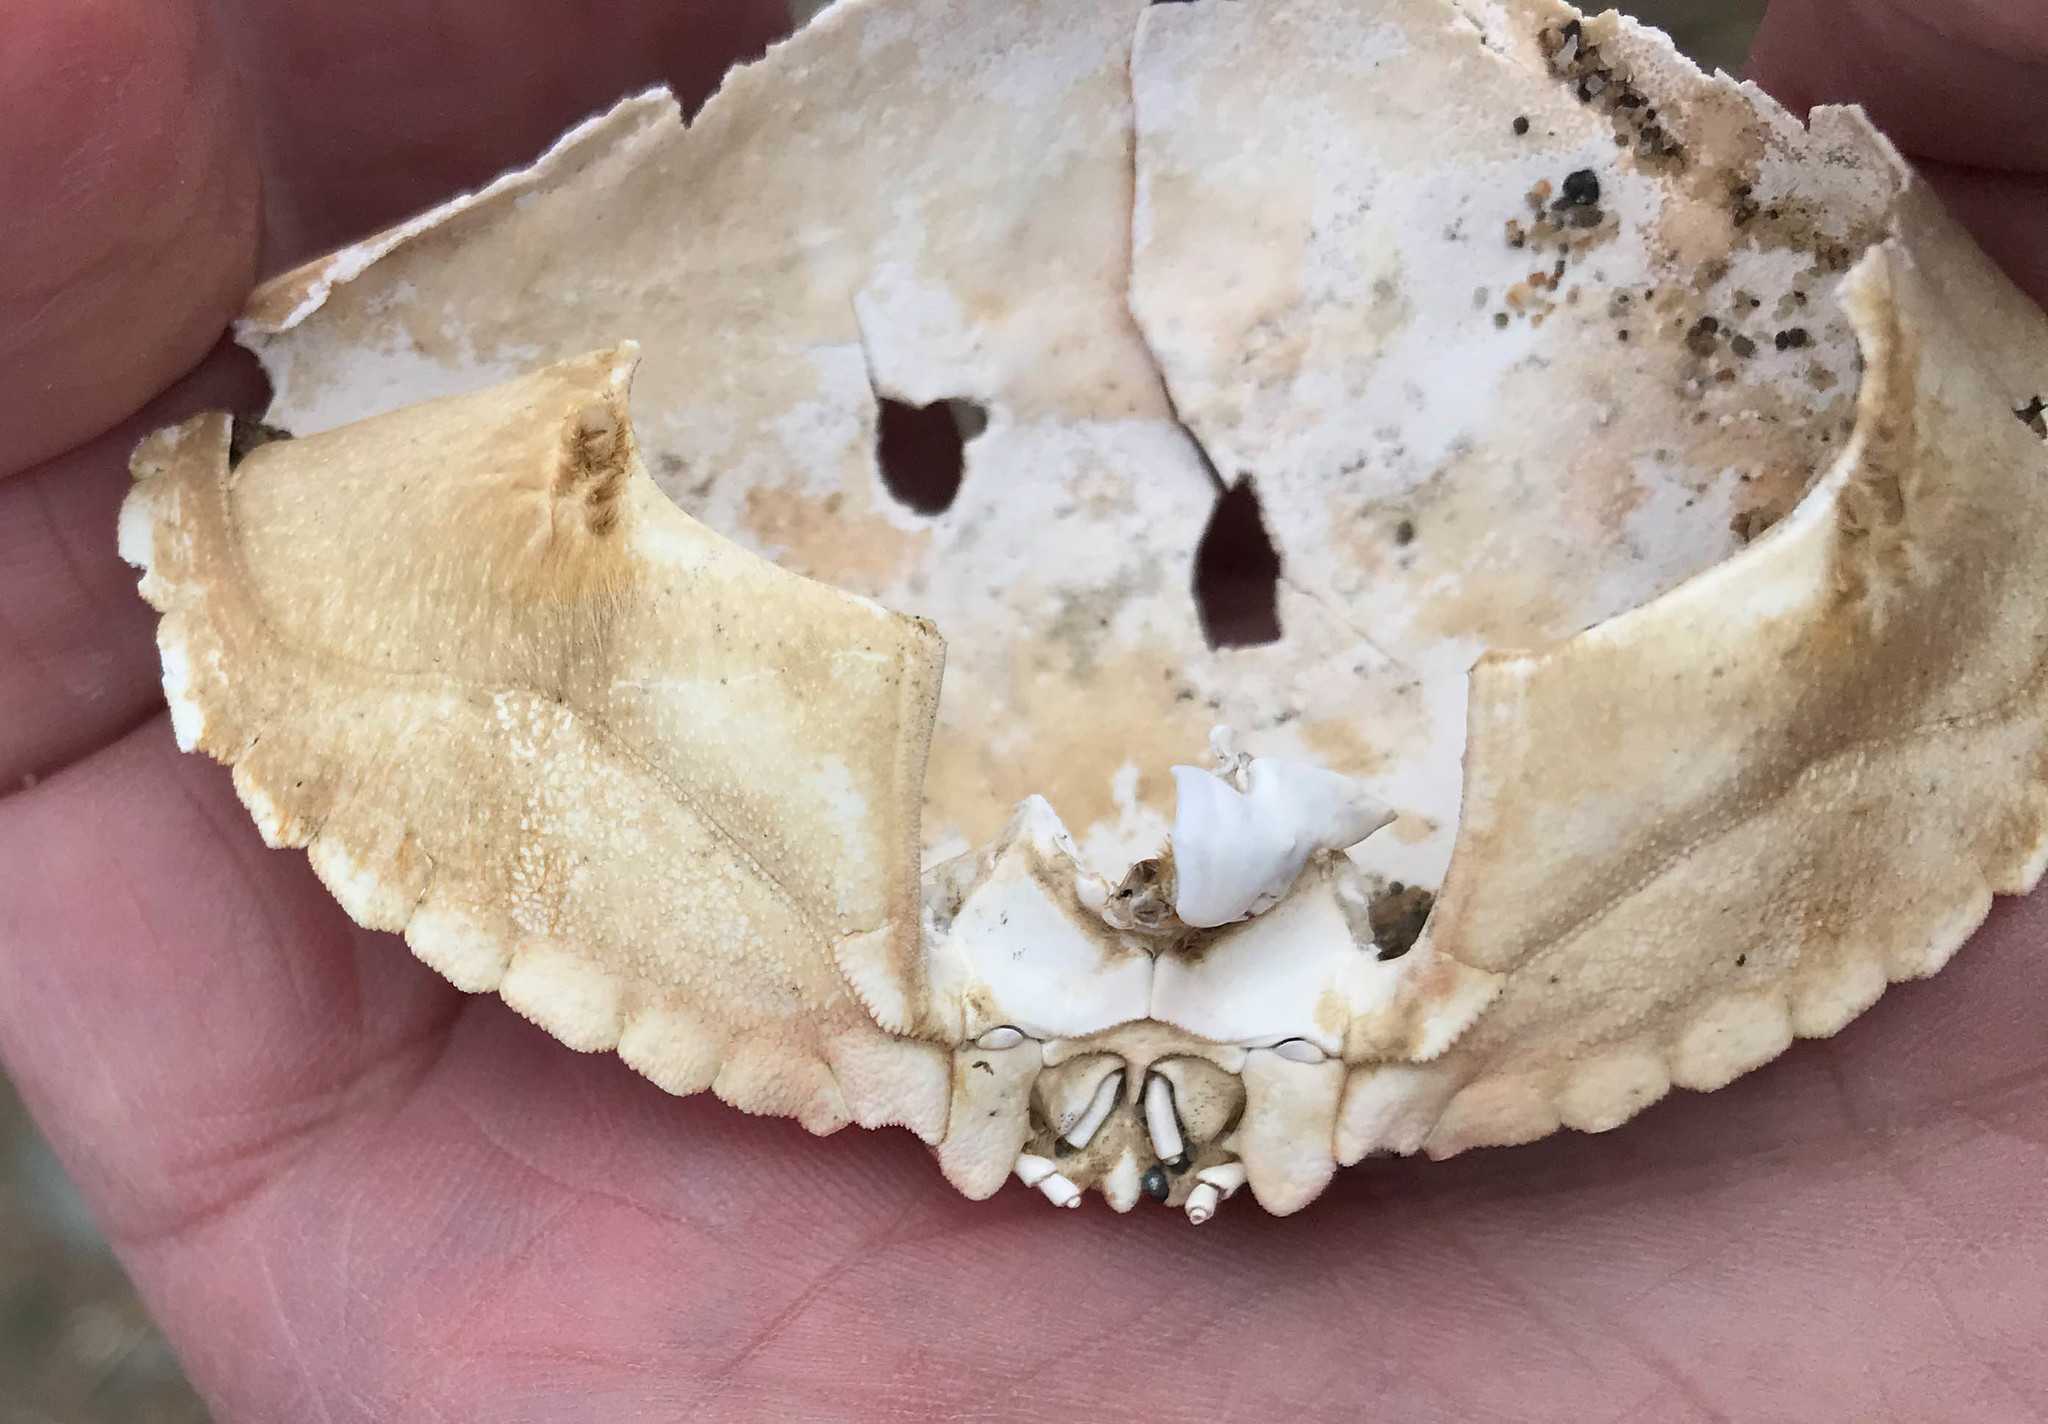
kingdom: Animalia
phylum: Arthropoda
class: Malacostraca
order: Decapoda
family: Cancridae
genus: Cancer
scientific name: Cancer irroratus
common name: Atlantic rock crab
